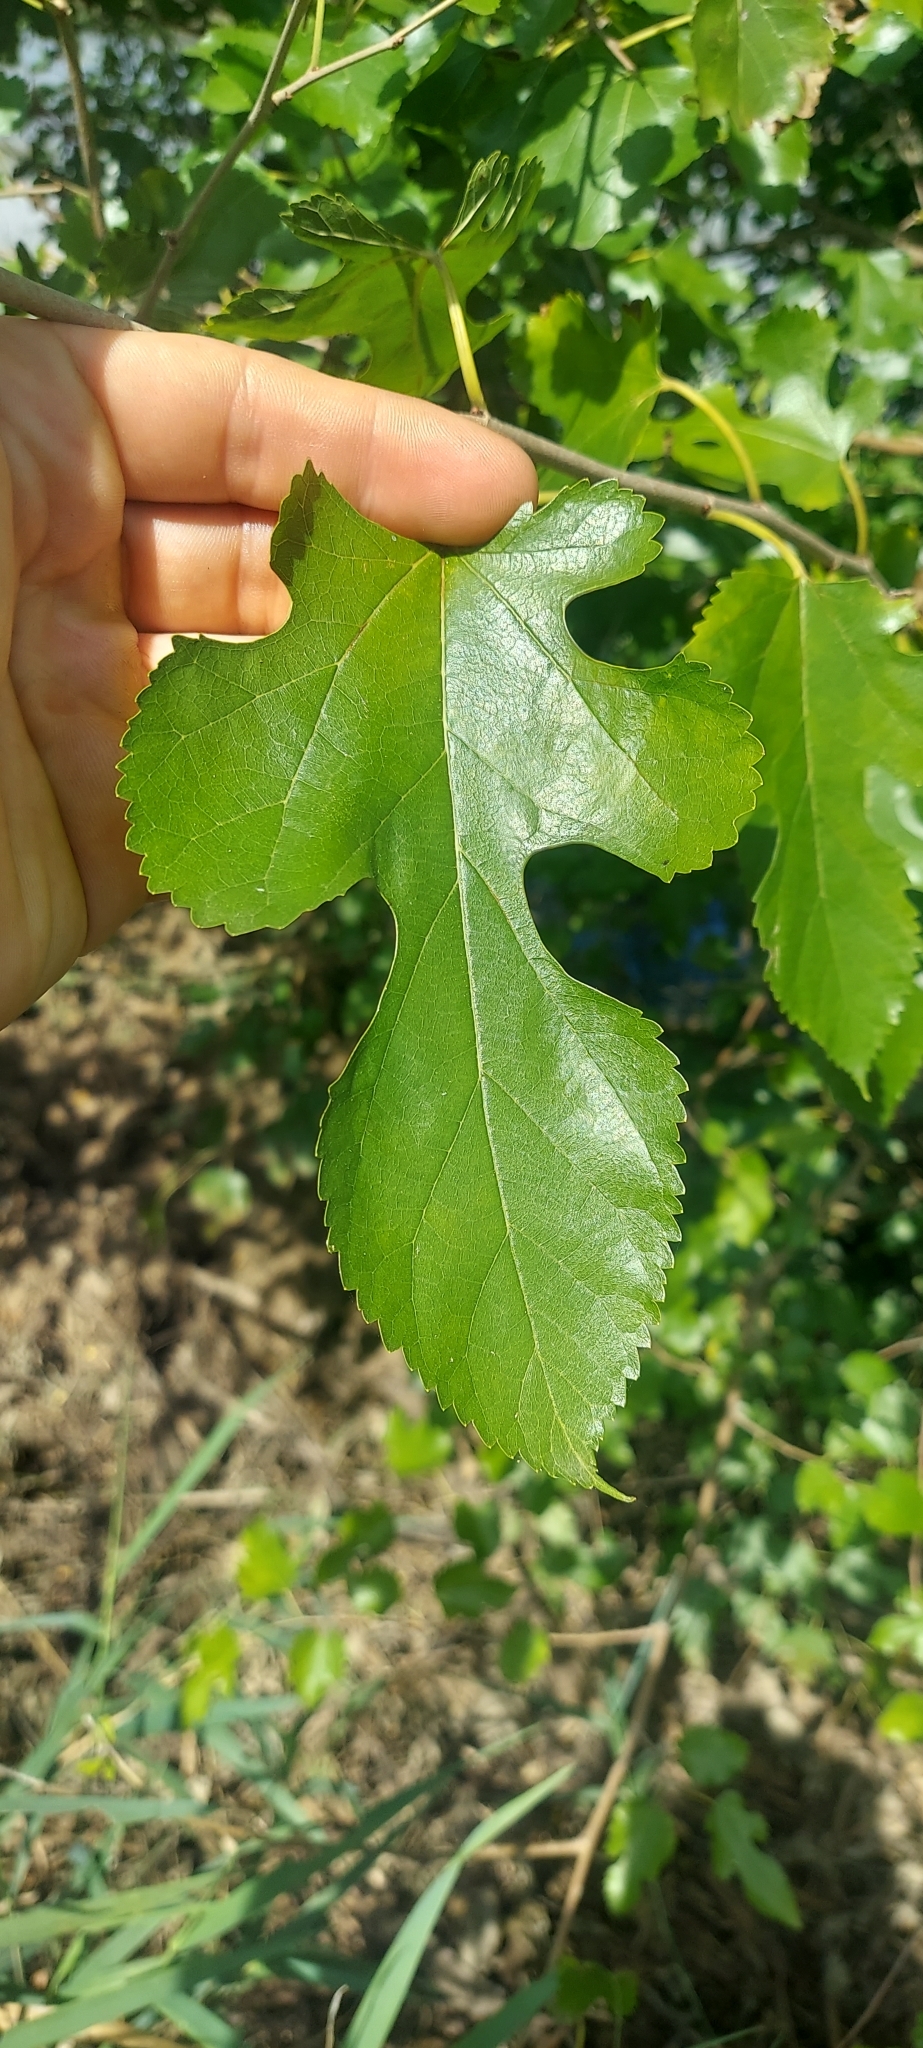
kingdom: Plantae
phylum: Tracheophyta
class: Magnoliopsida
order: Rosales
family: Moraceae
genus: Morus
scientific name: Morus alba
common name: White mulberry
